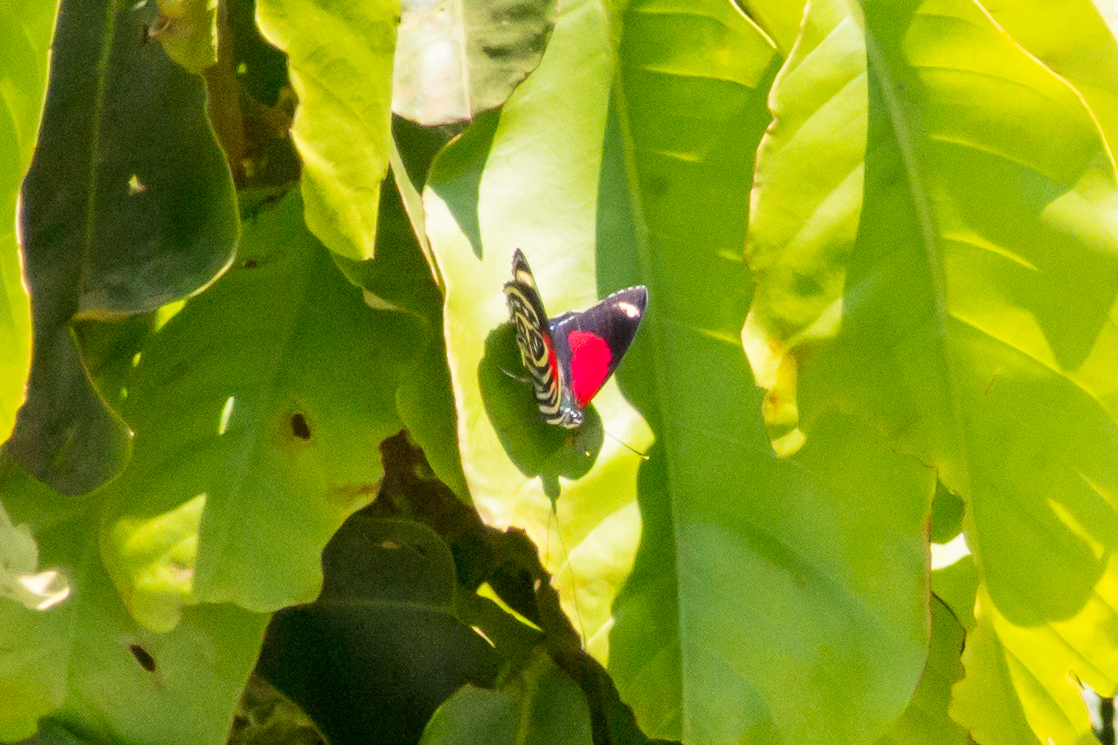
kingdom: Animalia
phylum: Arthropoda
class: Insecta
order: Lepidoptera
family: Nymphalidae
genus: Catagramma
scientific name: Catagramma pygas
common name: Godart's numberwing
